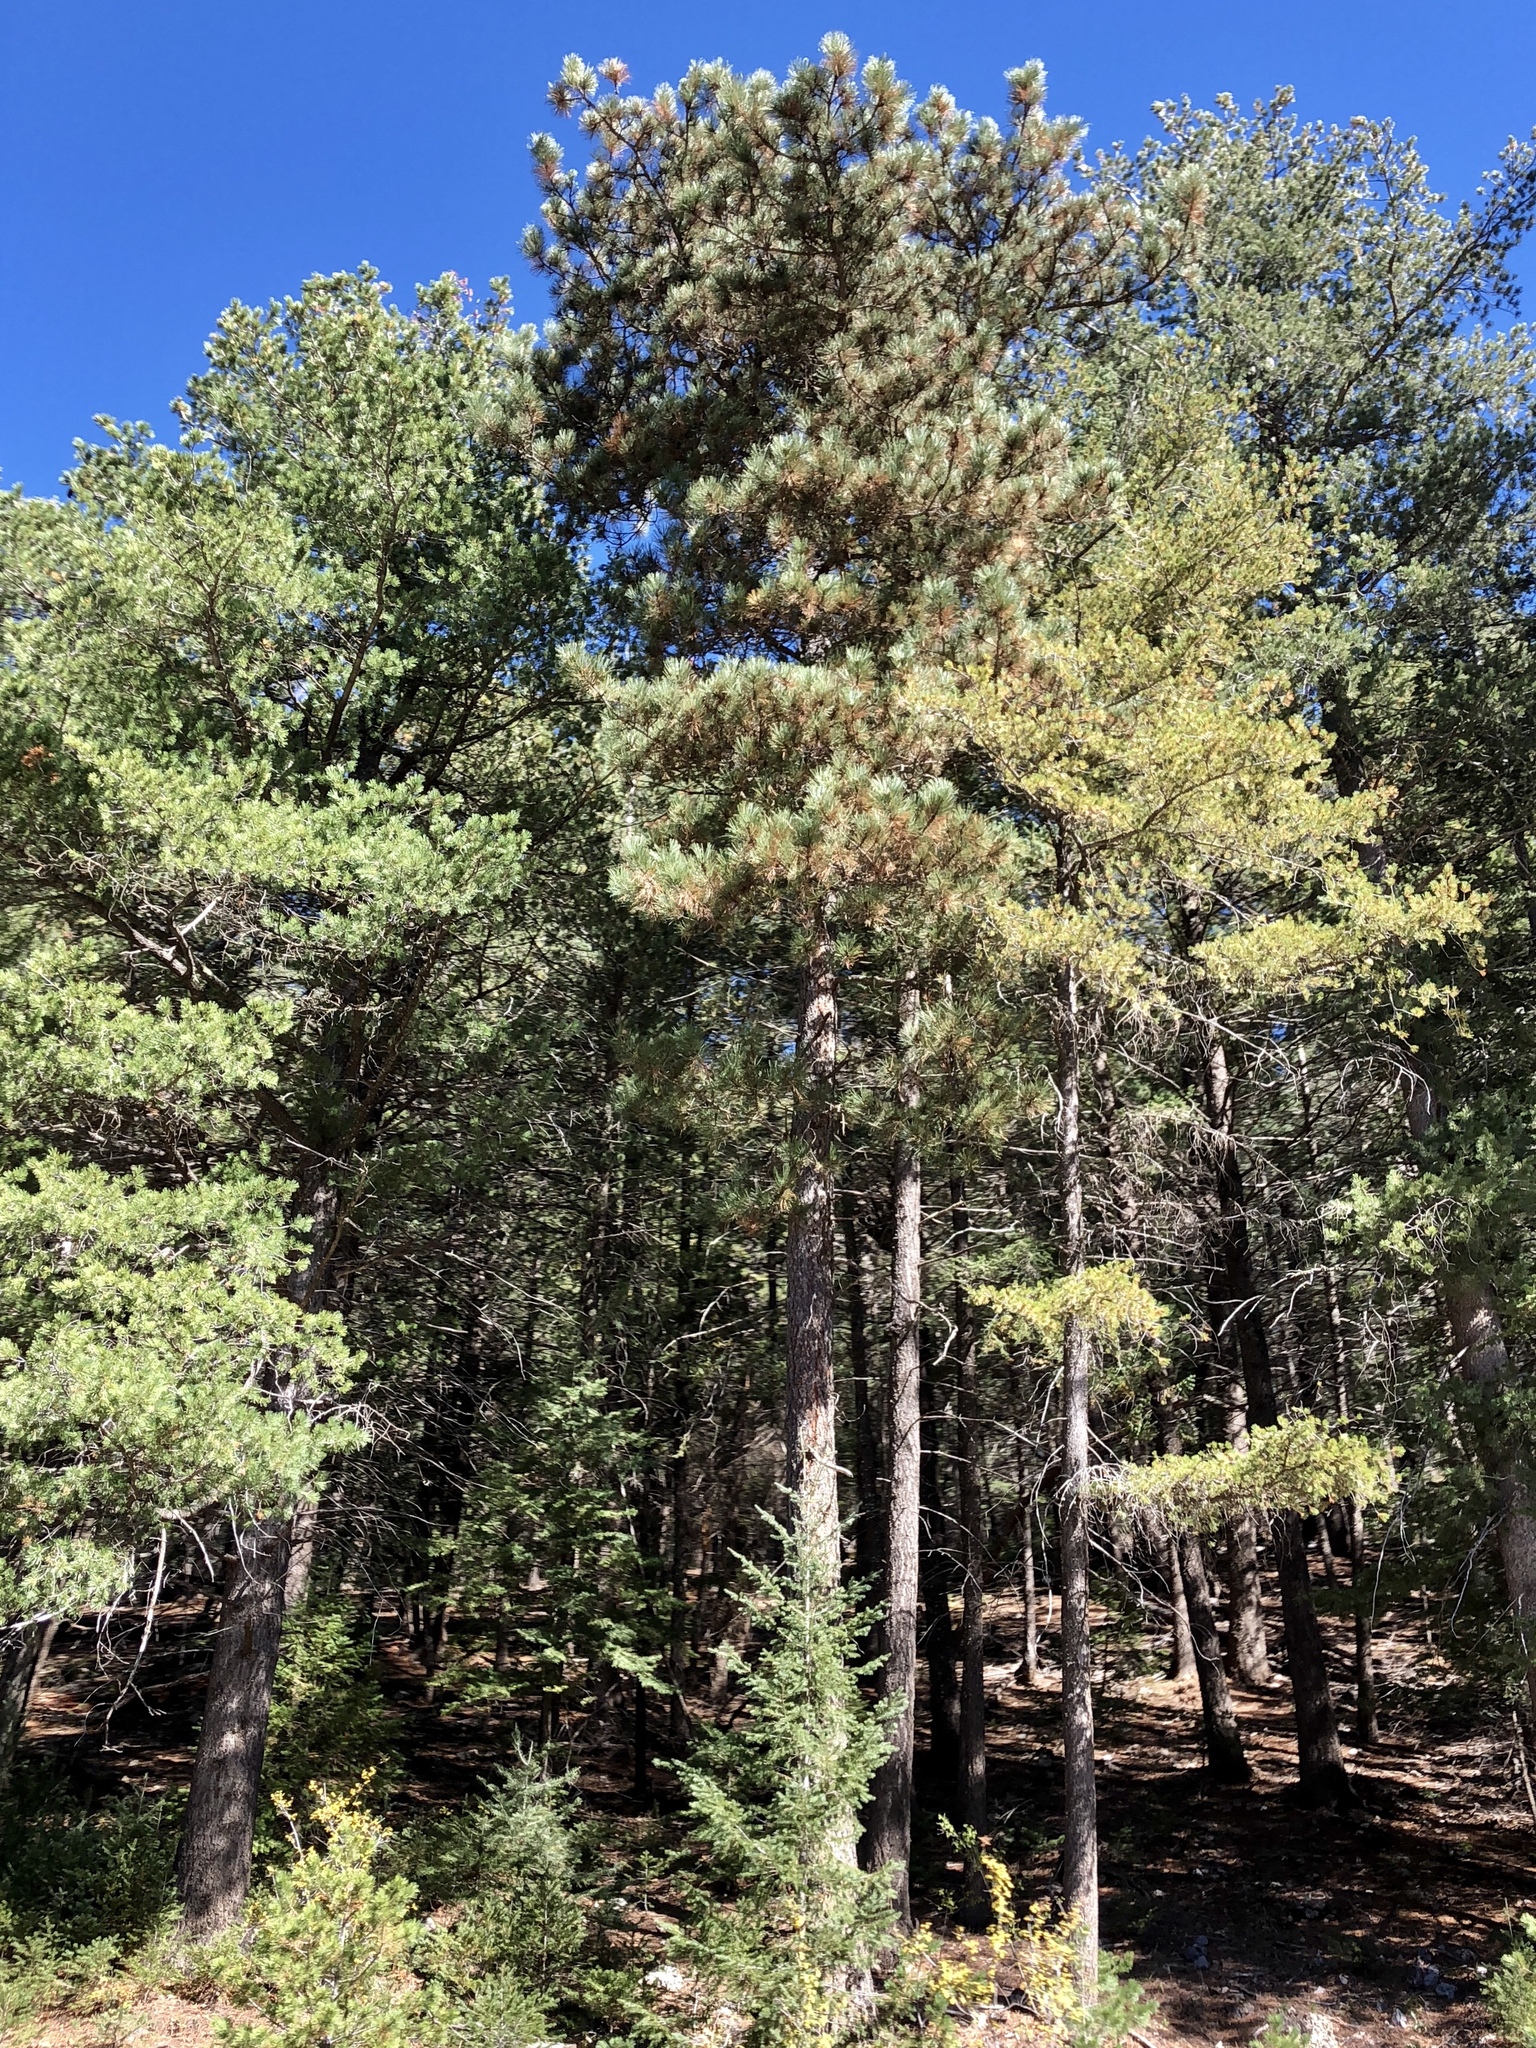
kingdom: Plantae
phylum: Tracheophyta
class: Pinopsida
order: Pinales
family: Pinaceae
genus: Pinus
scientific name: Pinus ponderosa
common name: Western yellow-pine
